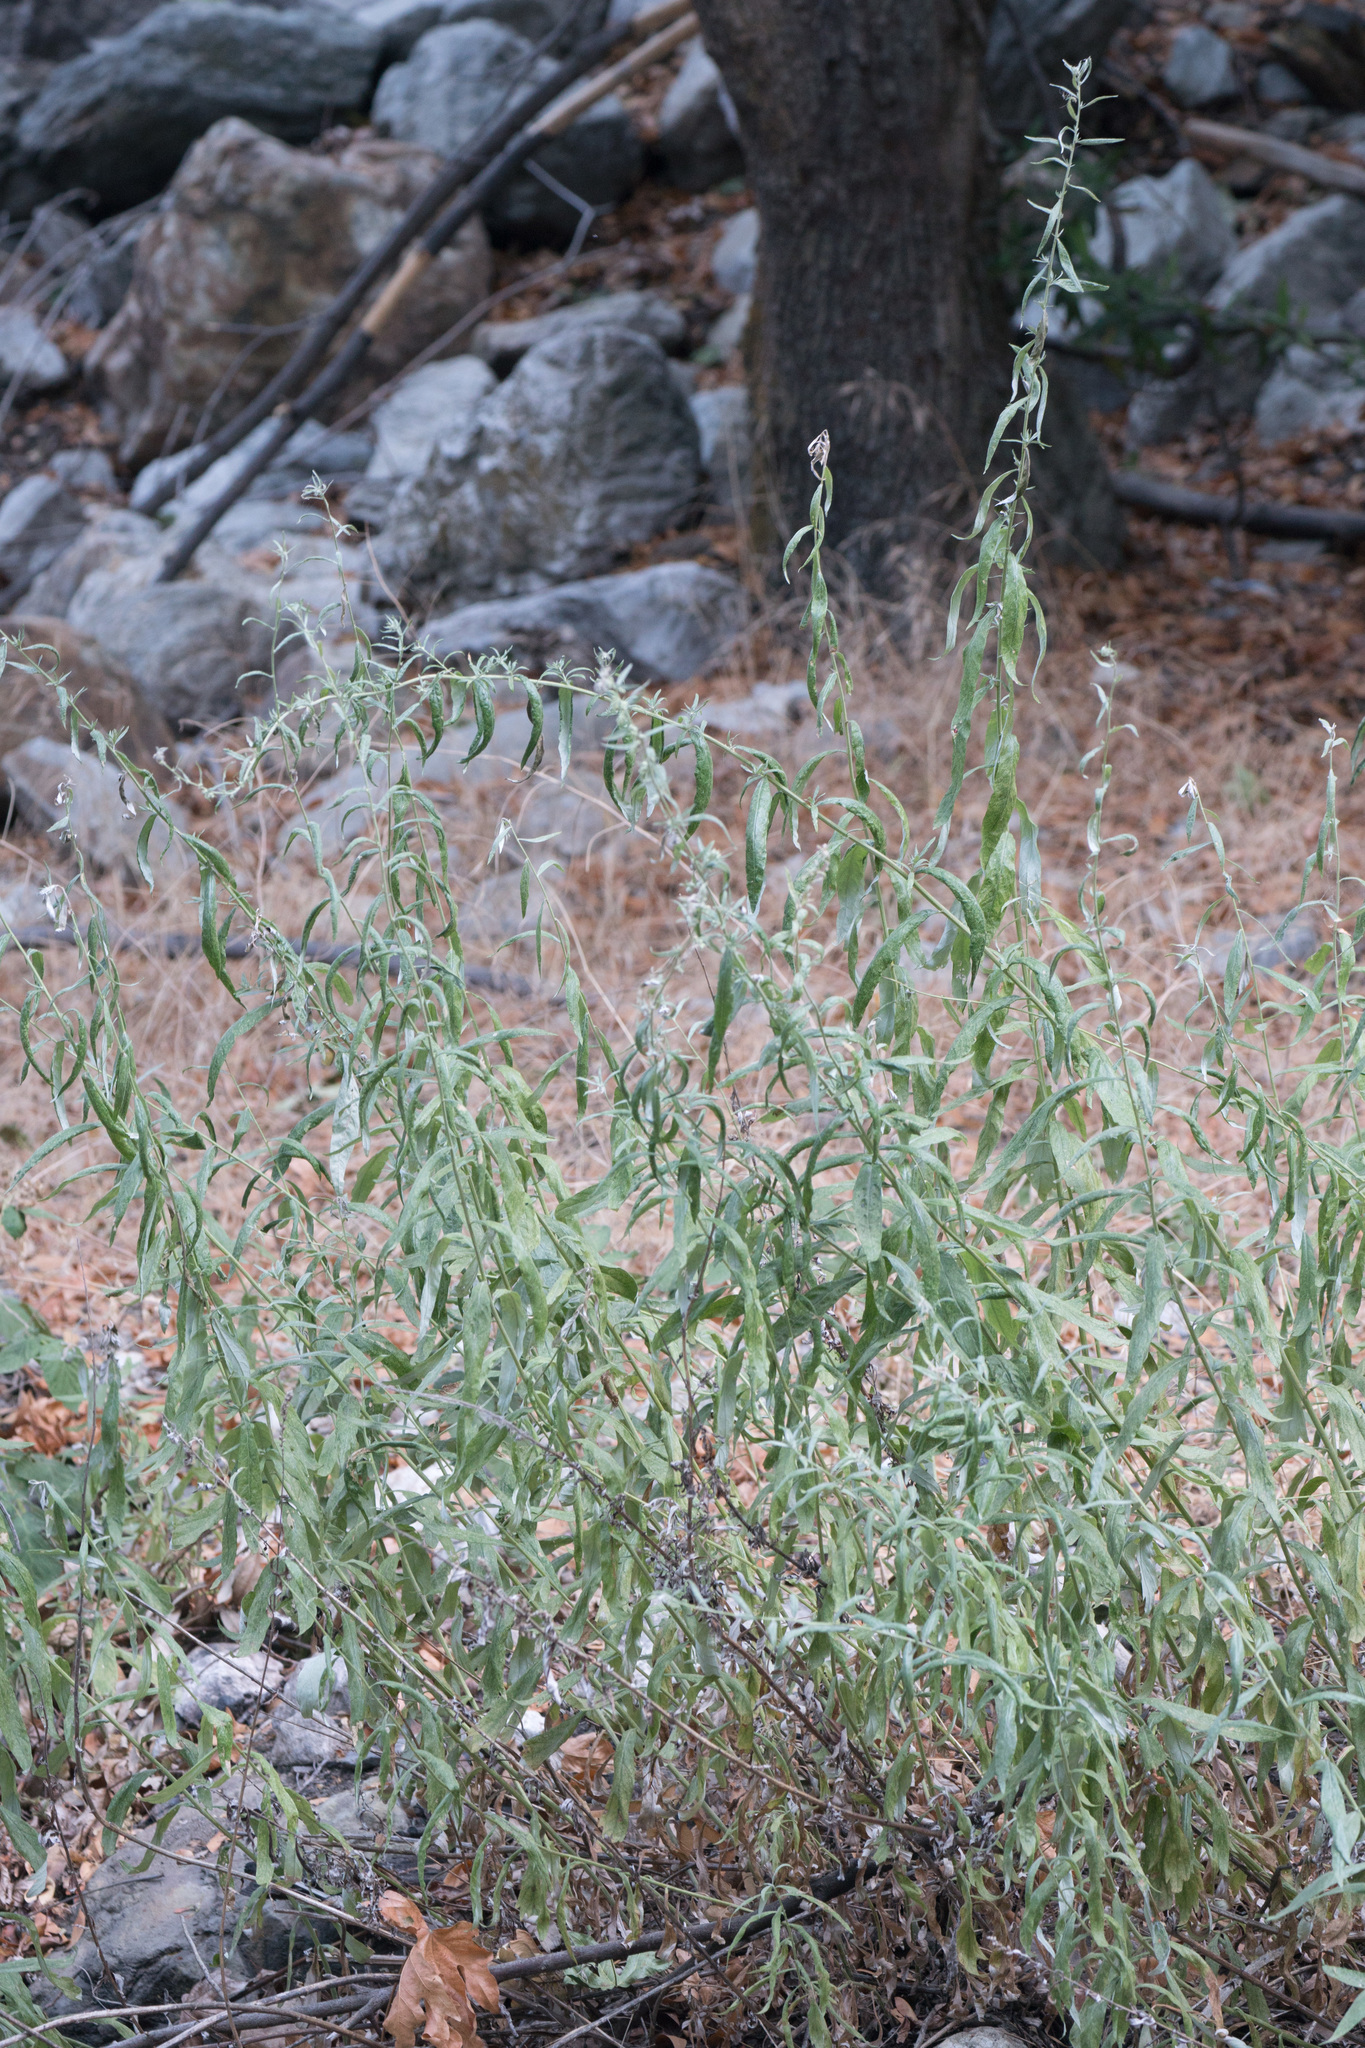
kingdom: Plantae
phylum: Tracheophyta
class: Magnoliopsida
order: Asterales
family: Asteraceae
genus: Artemisia
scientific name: Artemisia douglasiana
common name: Northwest mugwort
